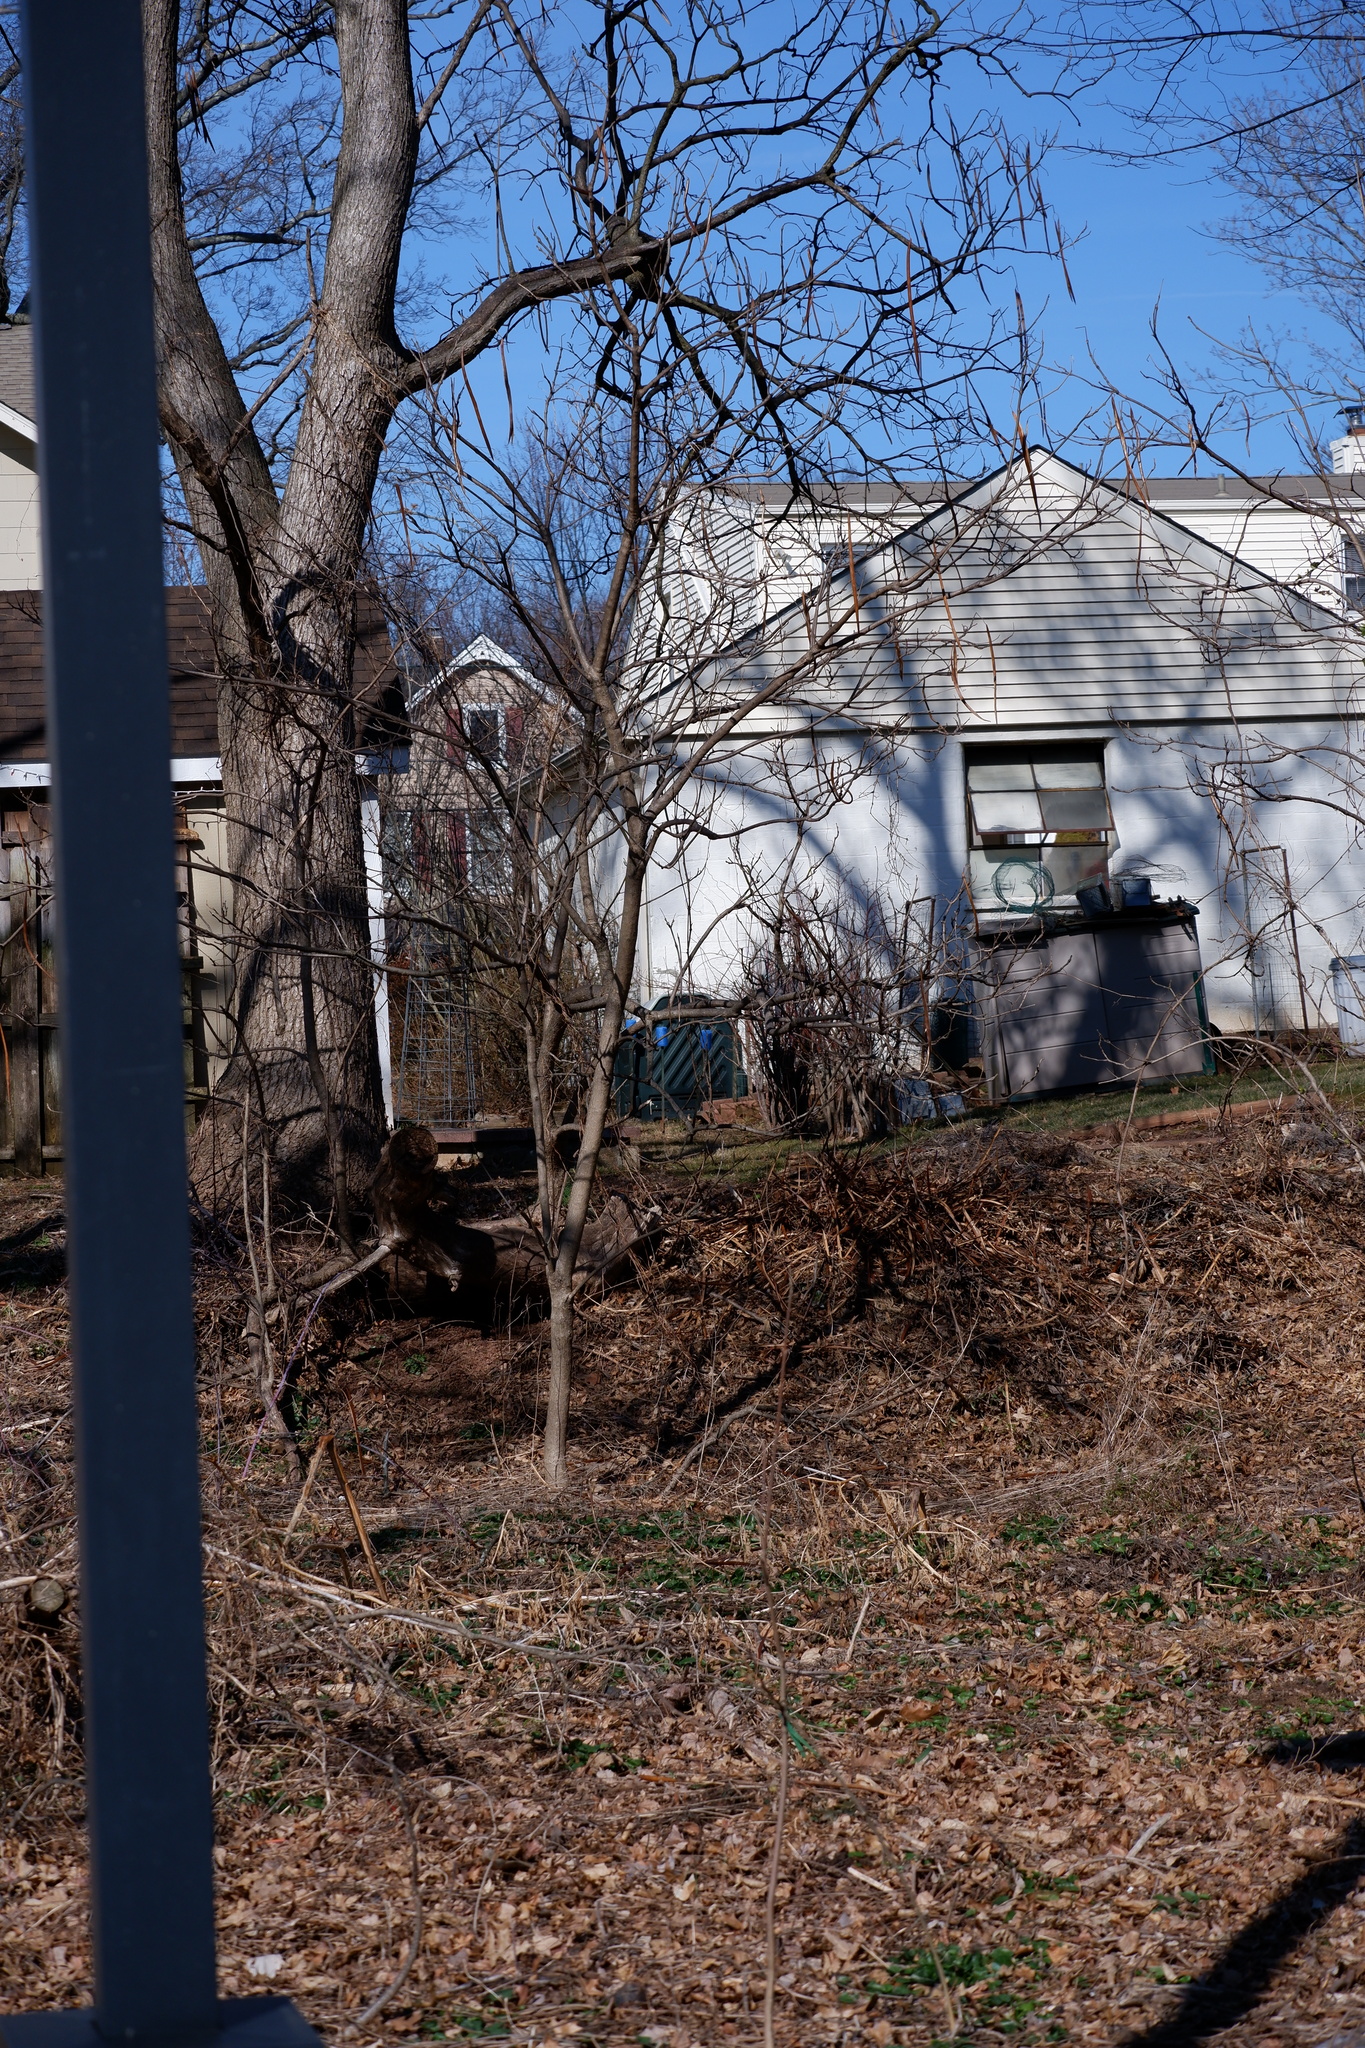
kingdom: Plantae
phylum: Tracheophyta
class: Magnoliopsida
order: Lamiales
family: Bignoniaceae
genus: Catalpa
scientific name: Catalpa speciosa
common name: Northern catalpa
